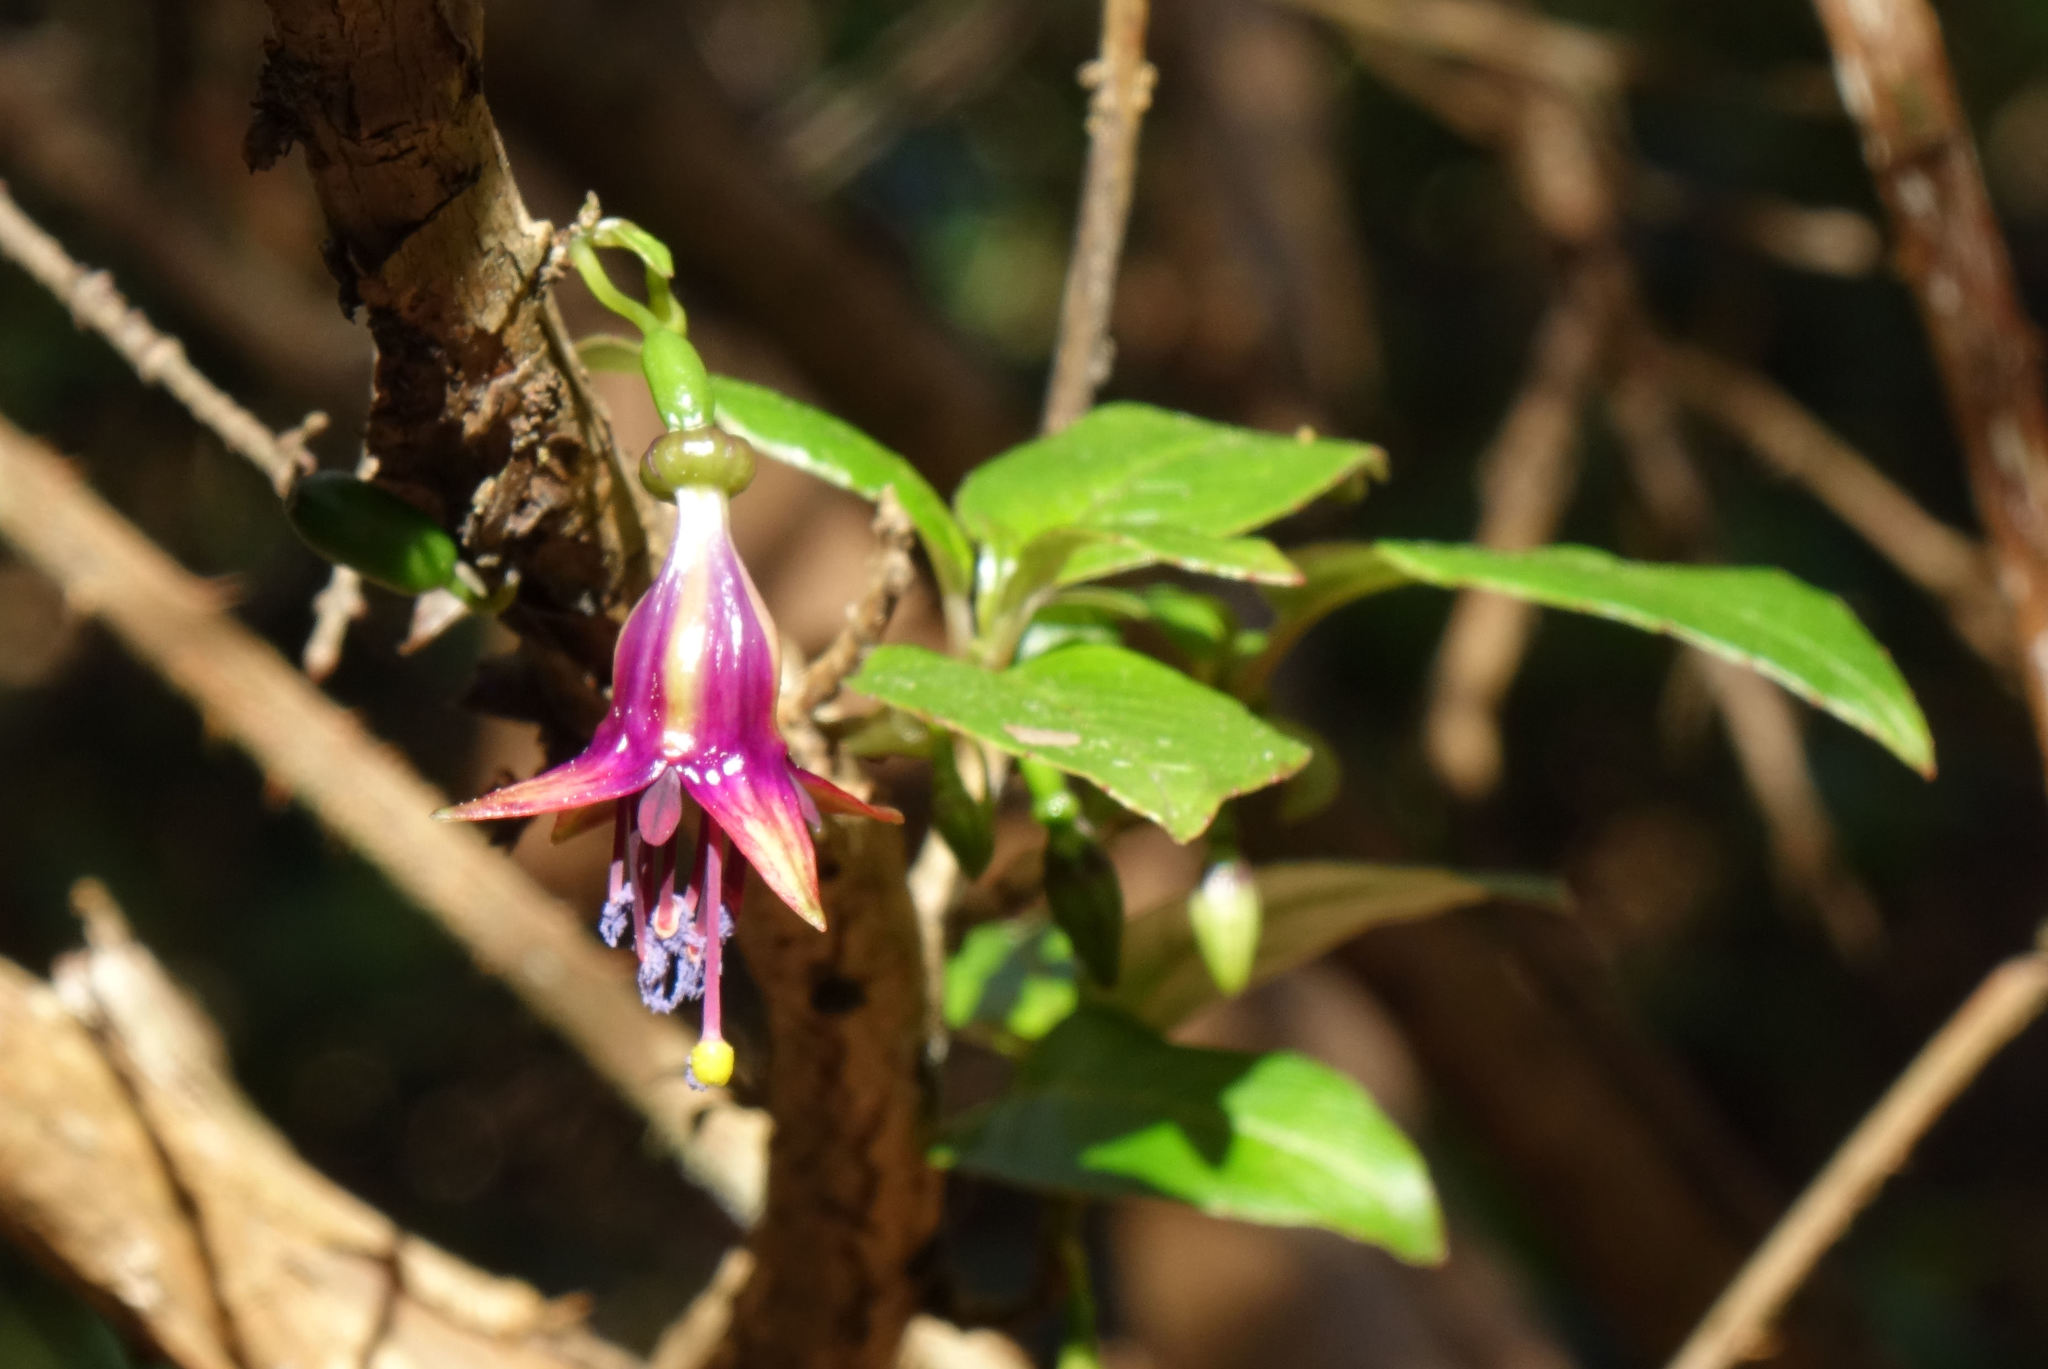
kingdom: Plantae
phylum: Tracheophyta
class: Magnoliopsida
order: Myrtales
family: Onagraceae
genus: Fuchsia
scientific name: Fuchsia excorticata
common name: Tree fuchsia
